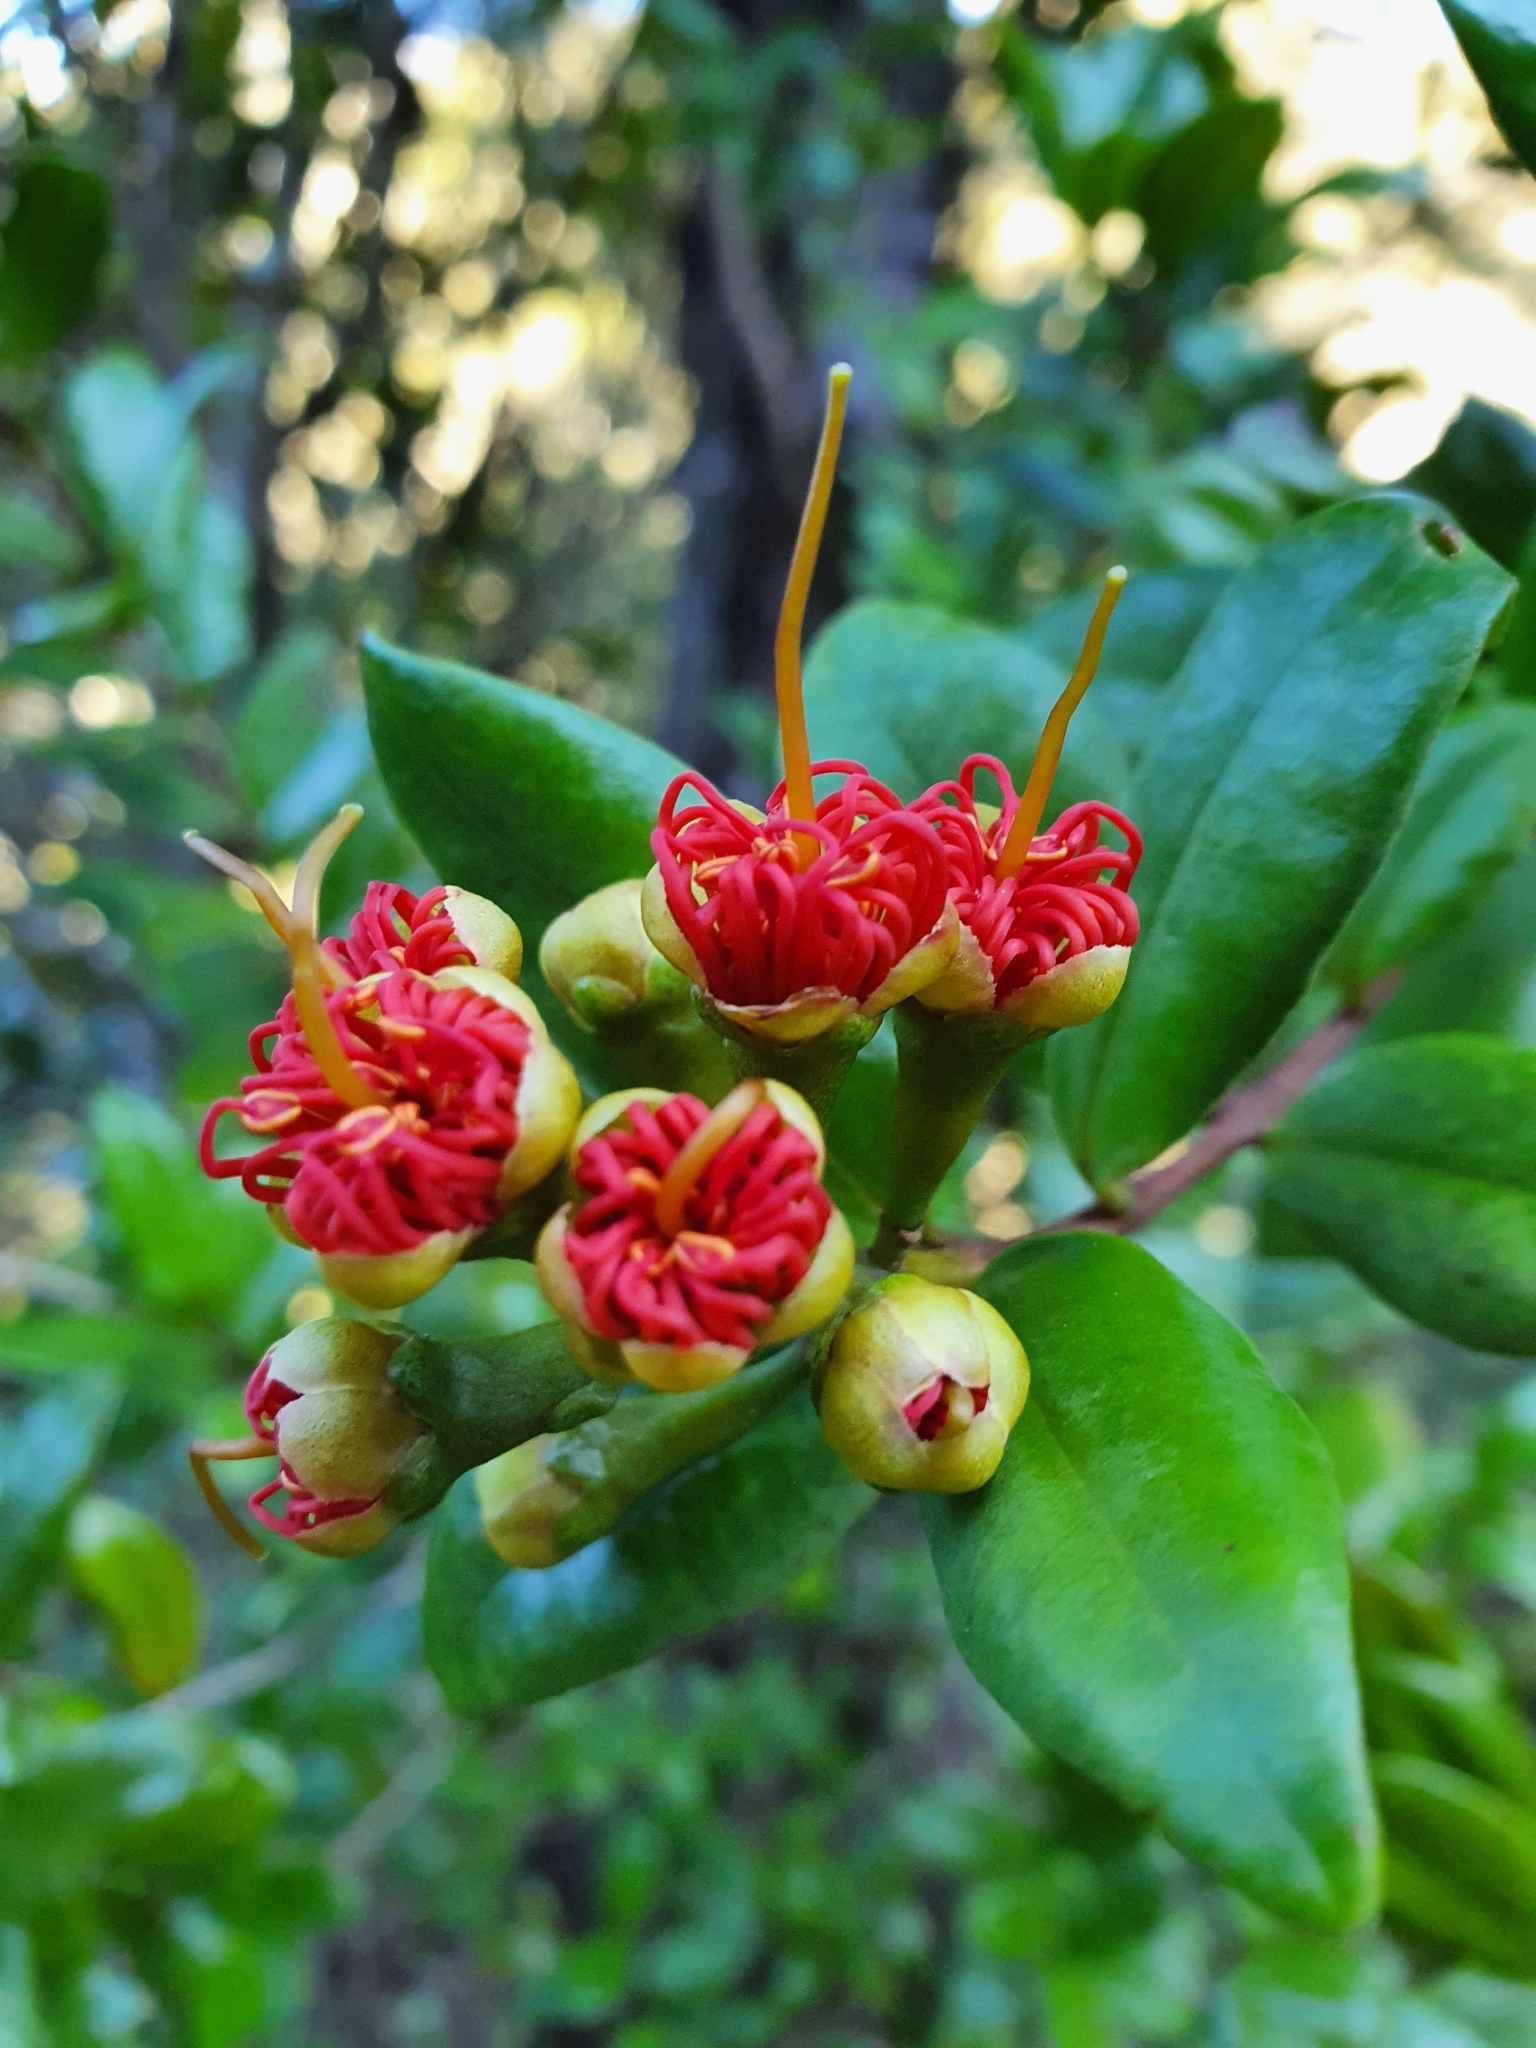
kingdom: Plantae
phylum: Tracheophyta
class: Magnoliopsida
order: Myrtales
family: Myrtaceae
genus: Metrosideros
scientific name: Metrosideros fulgens
